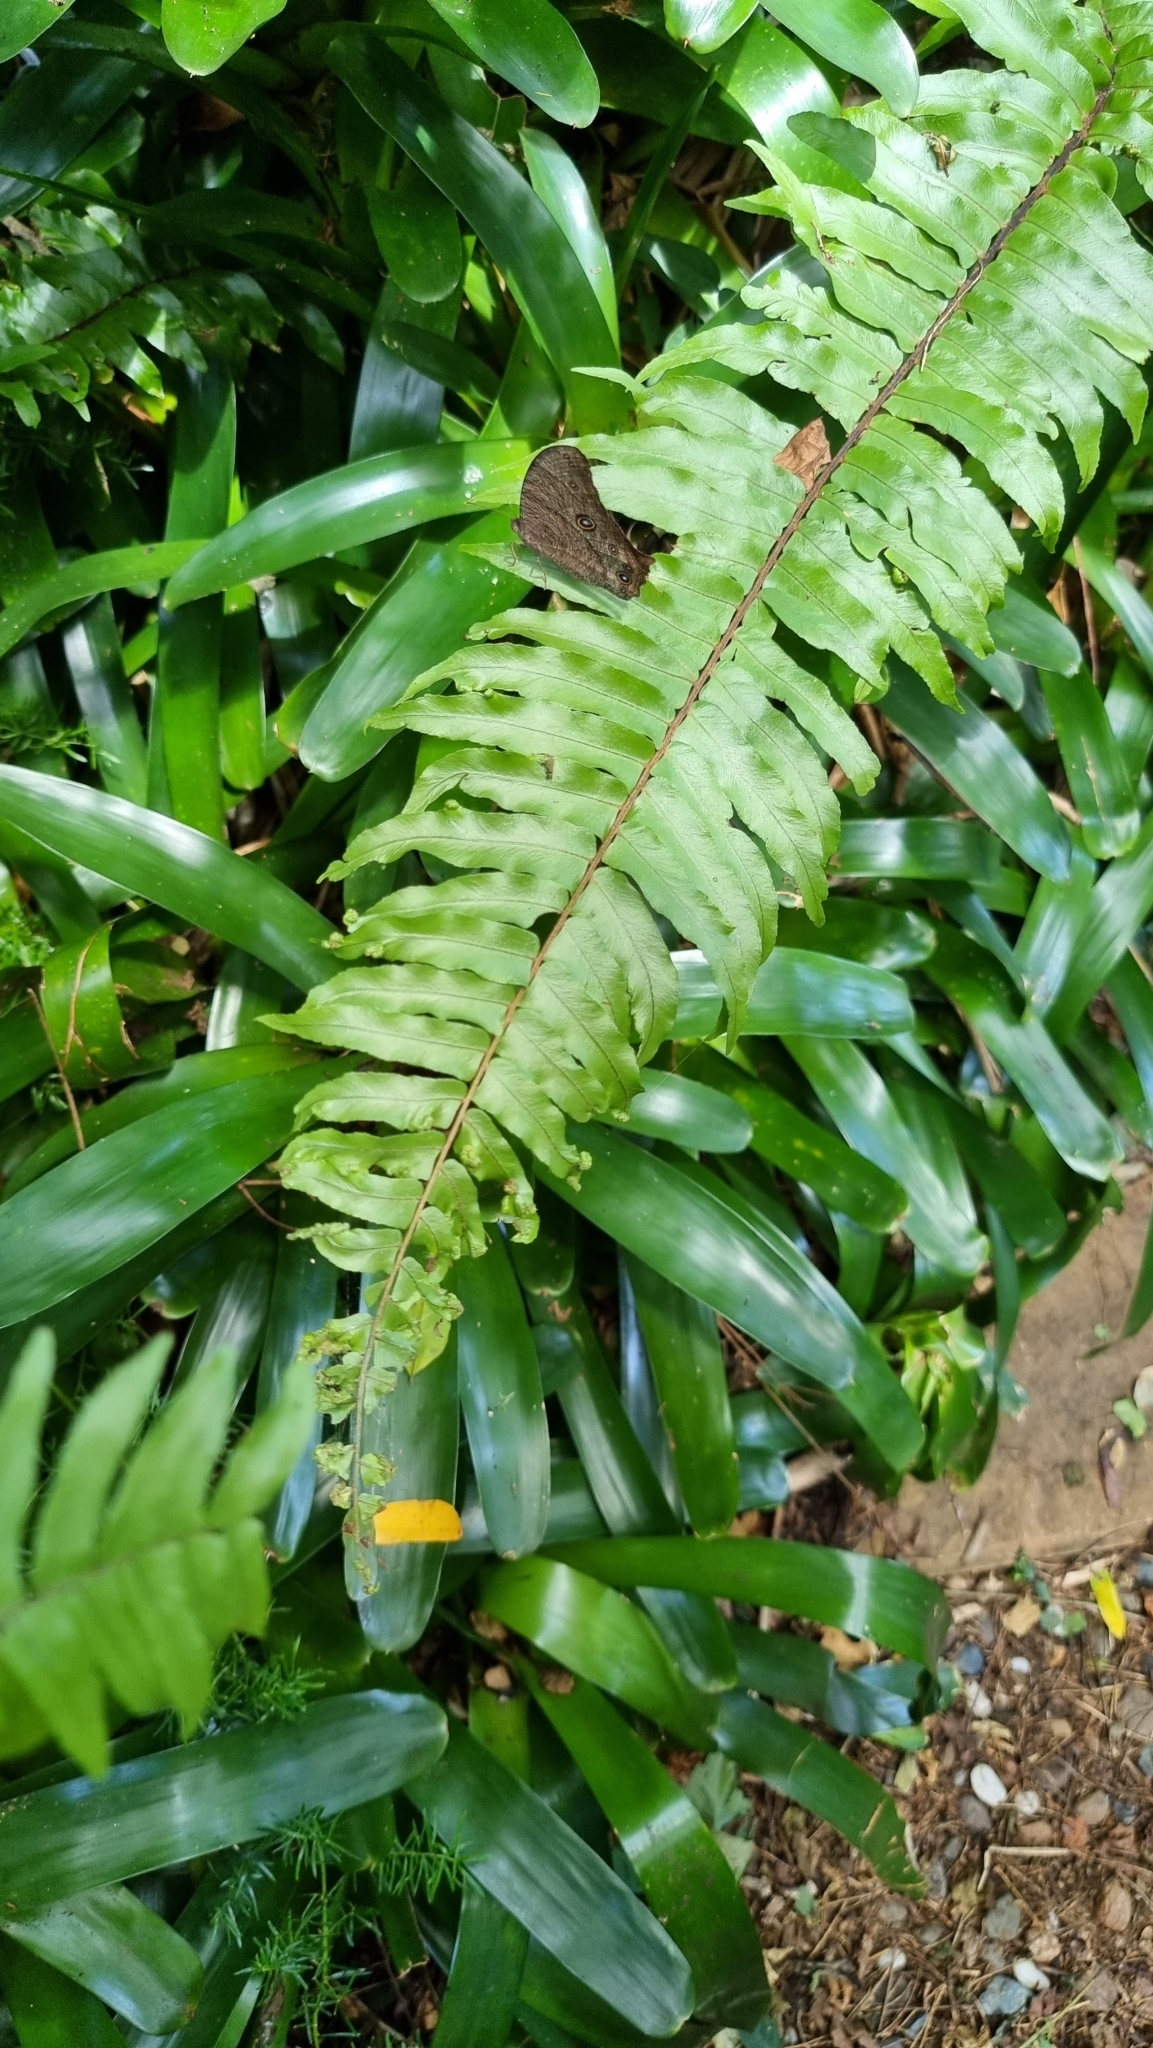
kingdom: Animalia
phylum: Arthropoda
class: Insecta
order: Lepidoptera
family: Nymphalidae
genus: Melanitis
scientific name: Melanitis leda
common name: Twilight brown
